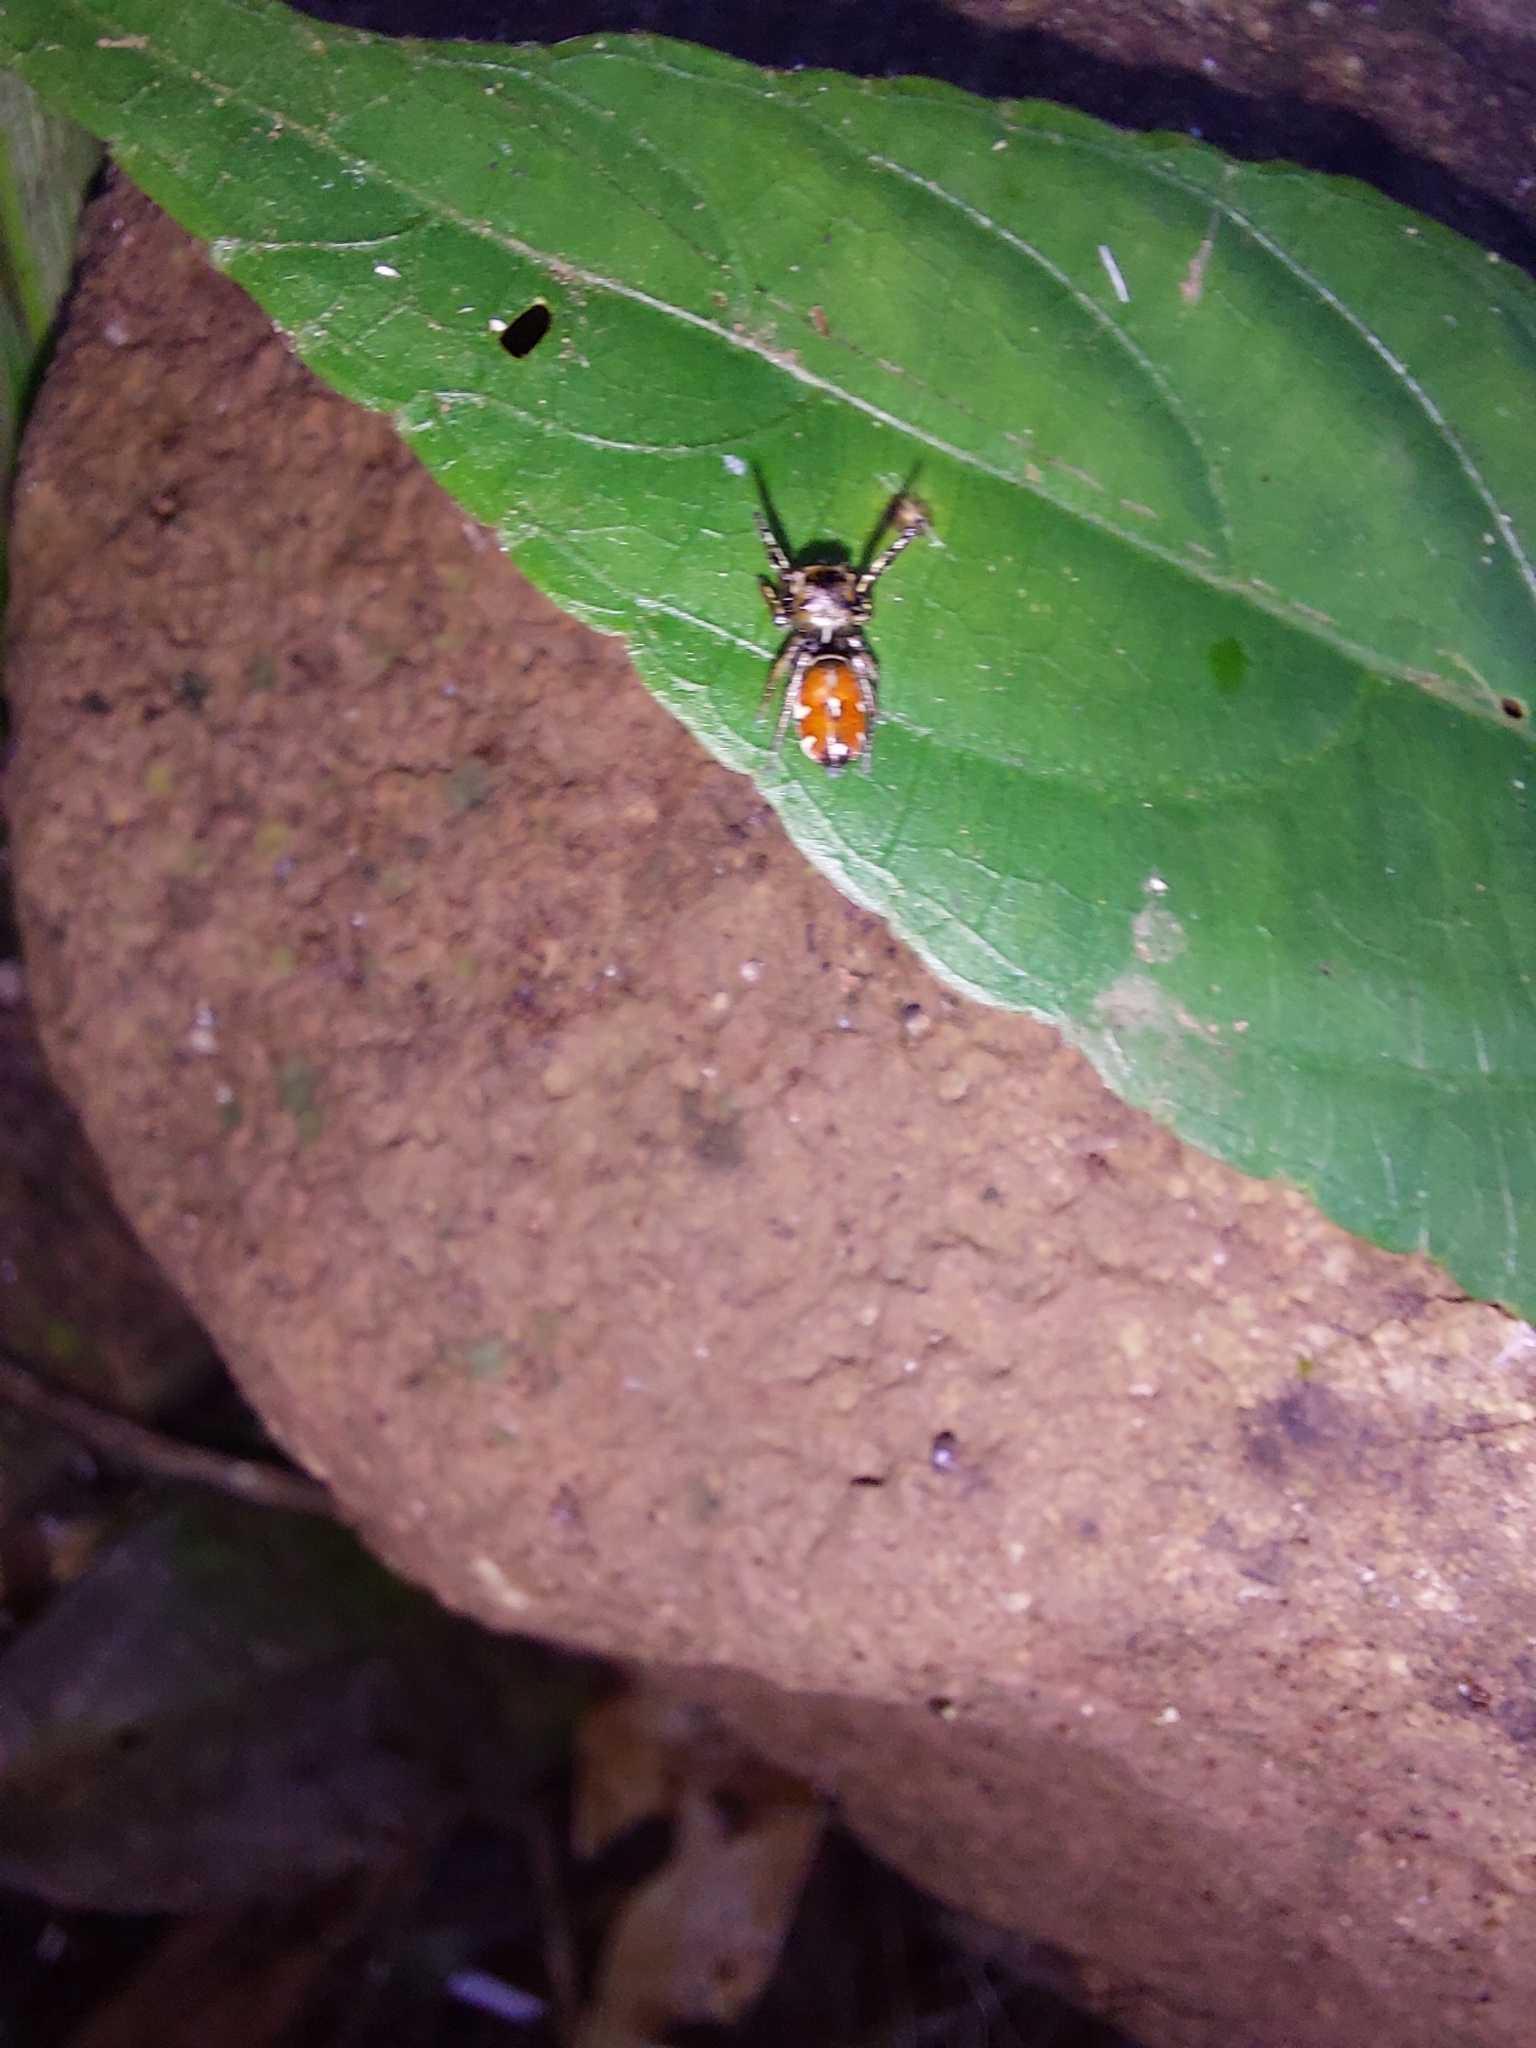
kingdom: Animalia
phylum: Arthropoda
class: Arachnida
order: Araneae
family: Salticidae
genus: Pachomius
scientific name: Pachomius dybowskii
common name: Jumping spiders
